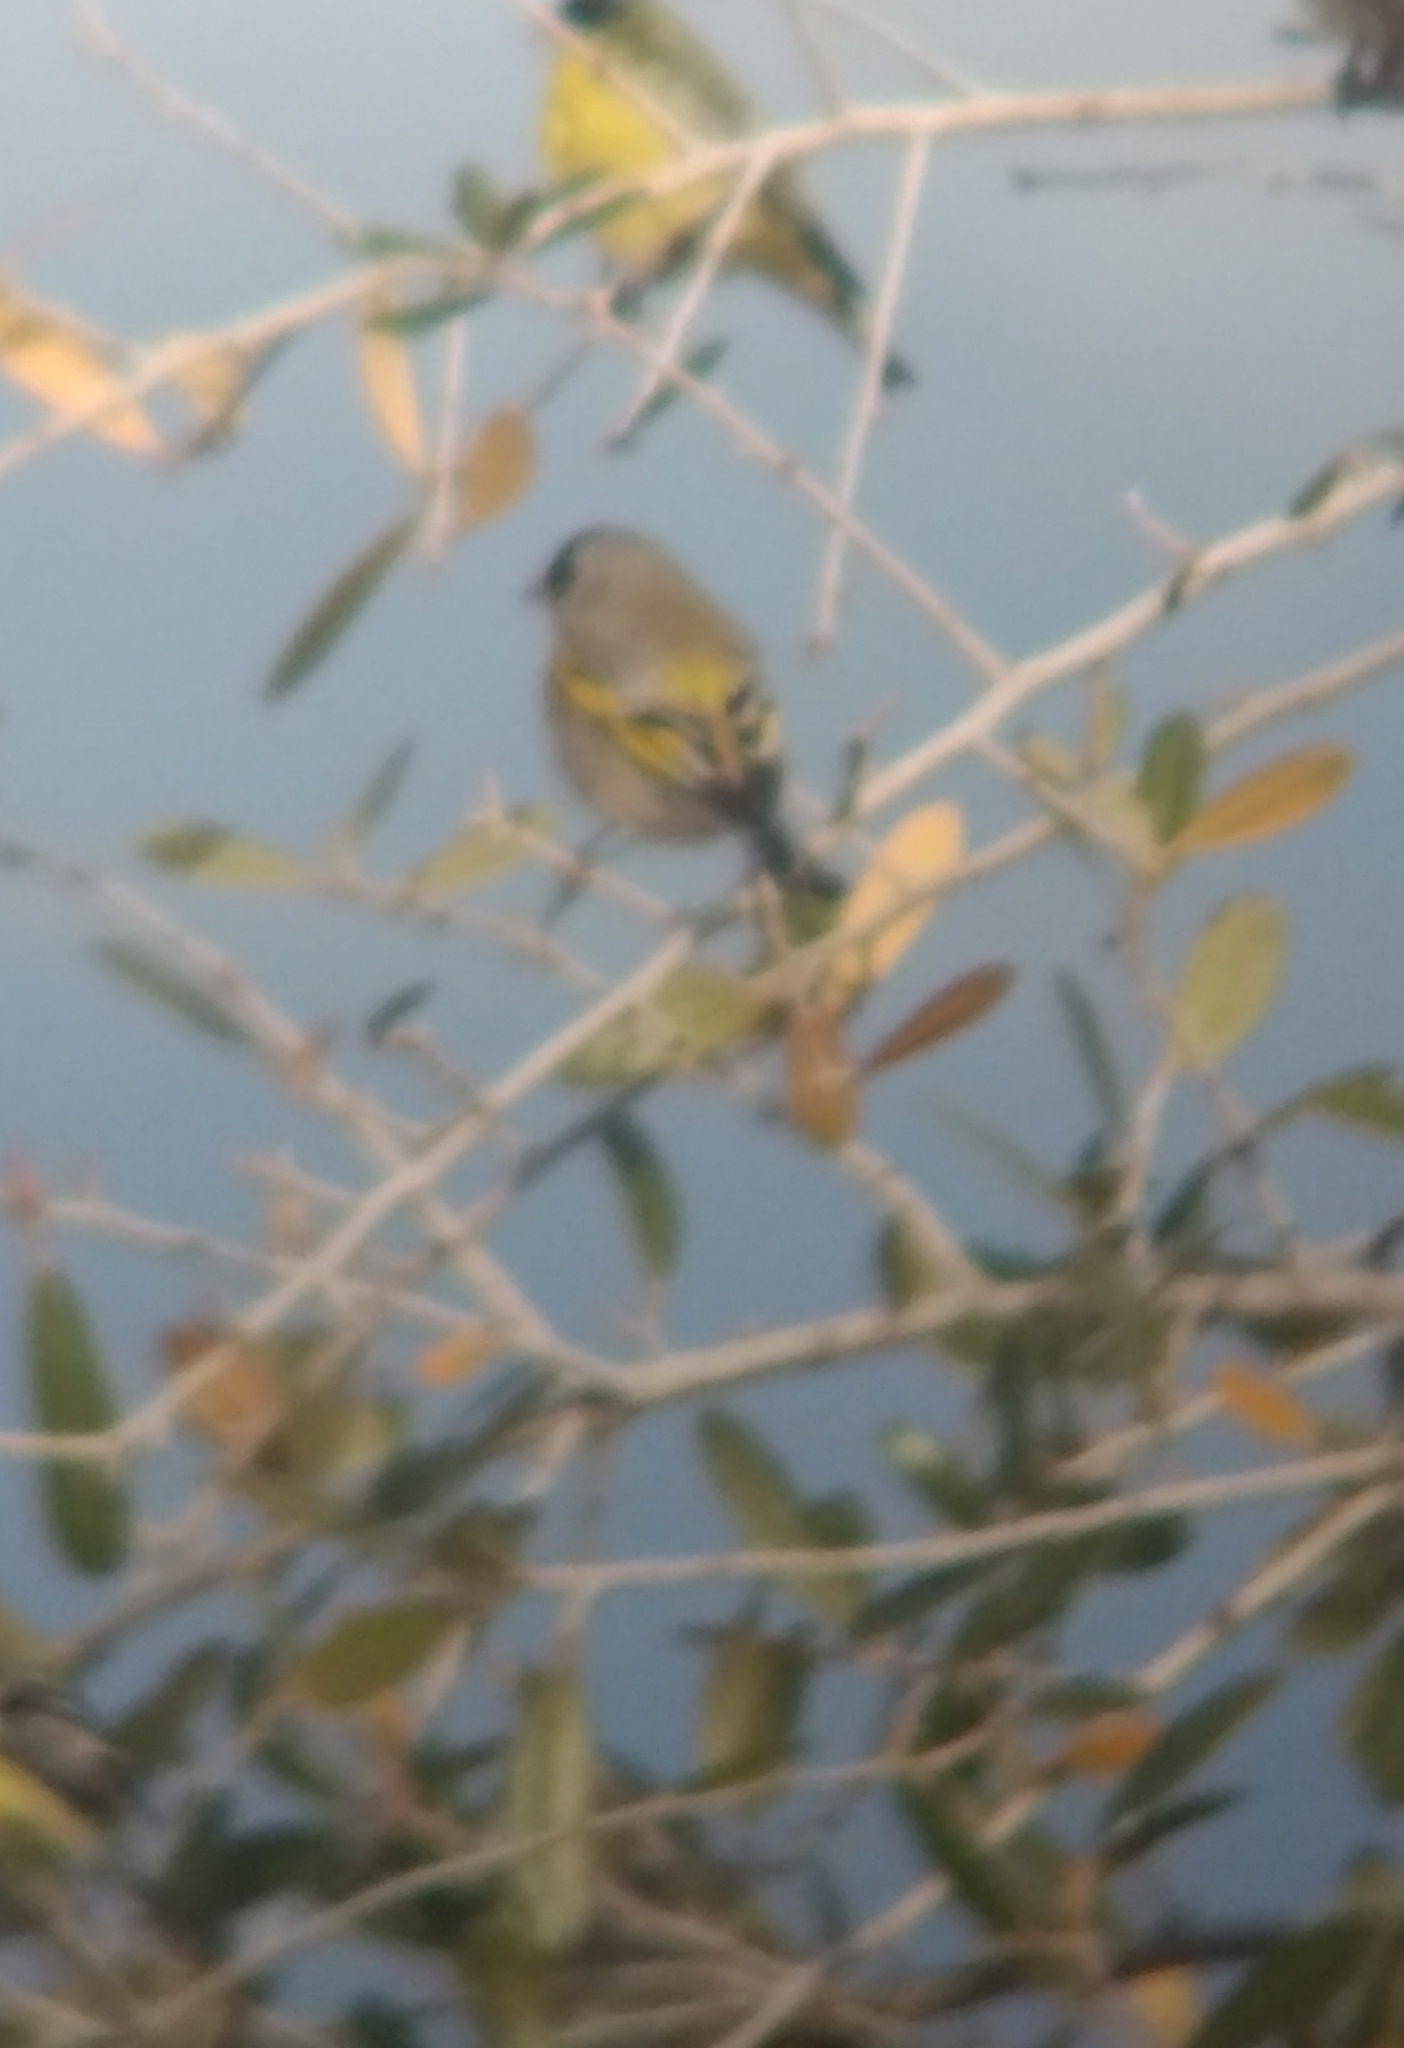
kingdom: Animalia
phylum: Chordata
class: Aves
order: Passeriformes
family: Fringillidae
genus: Spinus
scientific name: Spinus lawrencei
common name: Lawrence's goldfinch
